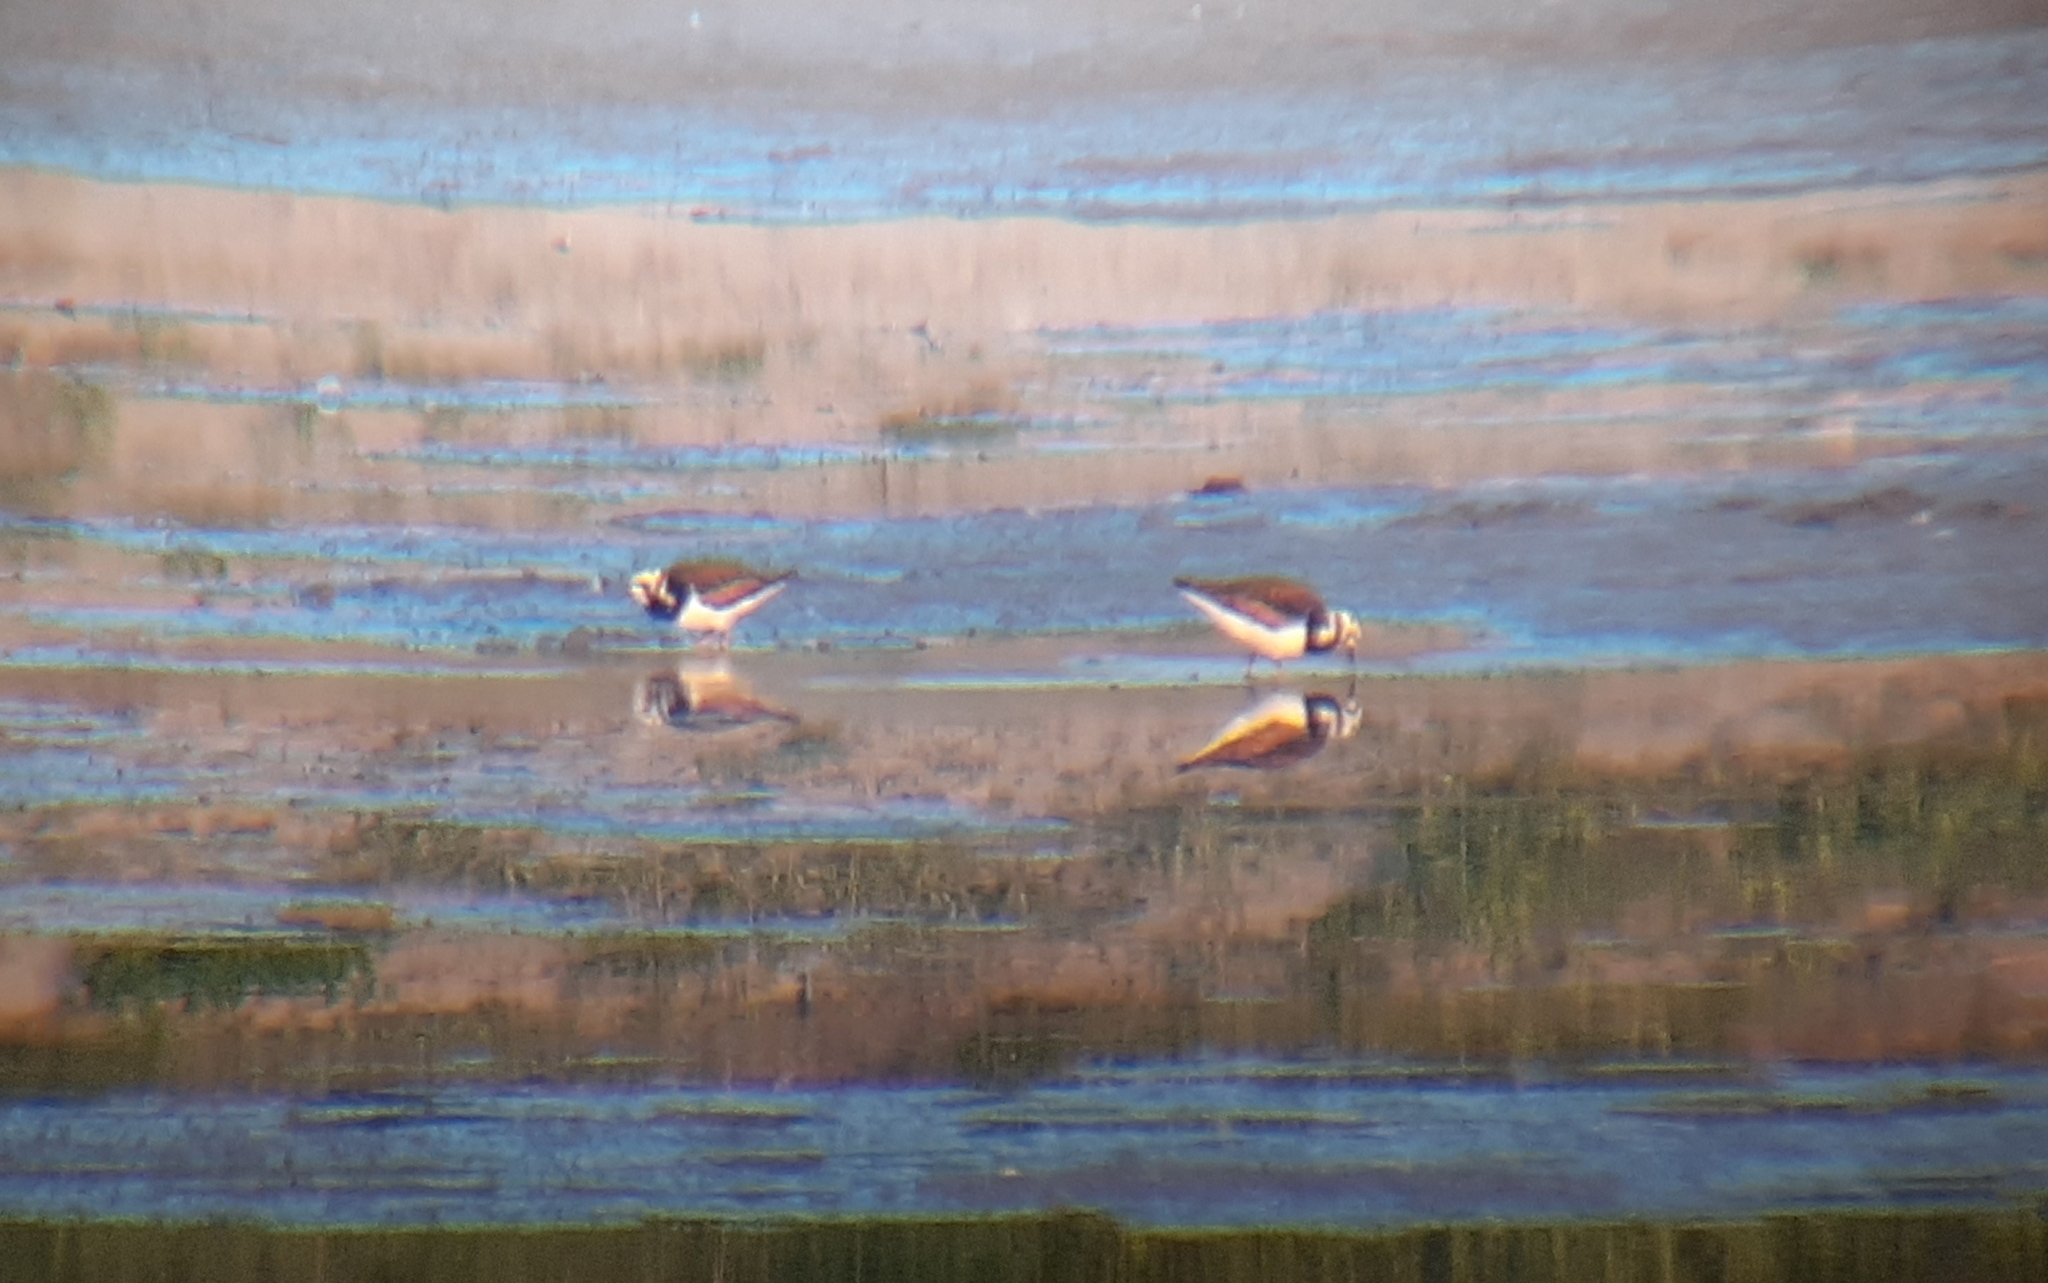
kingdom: Animalia
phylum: Chordata
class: Aves
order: Charadriiformes
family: Scolopacidae
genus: Arenaria
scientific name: Arenaria interpres
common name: Ruddy turnstone
